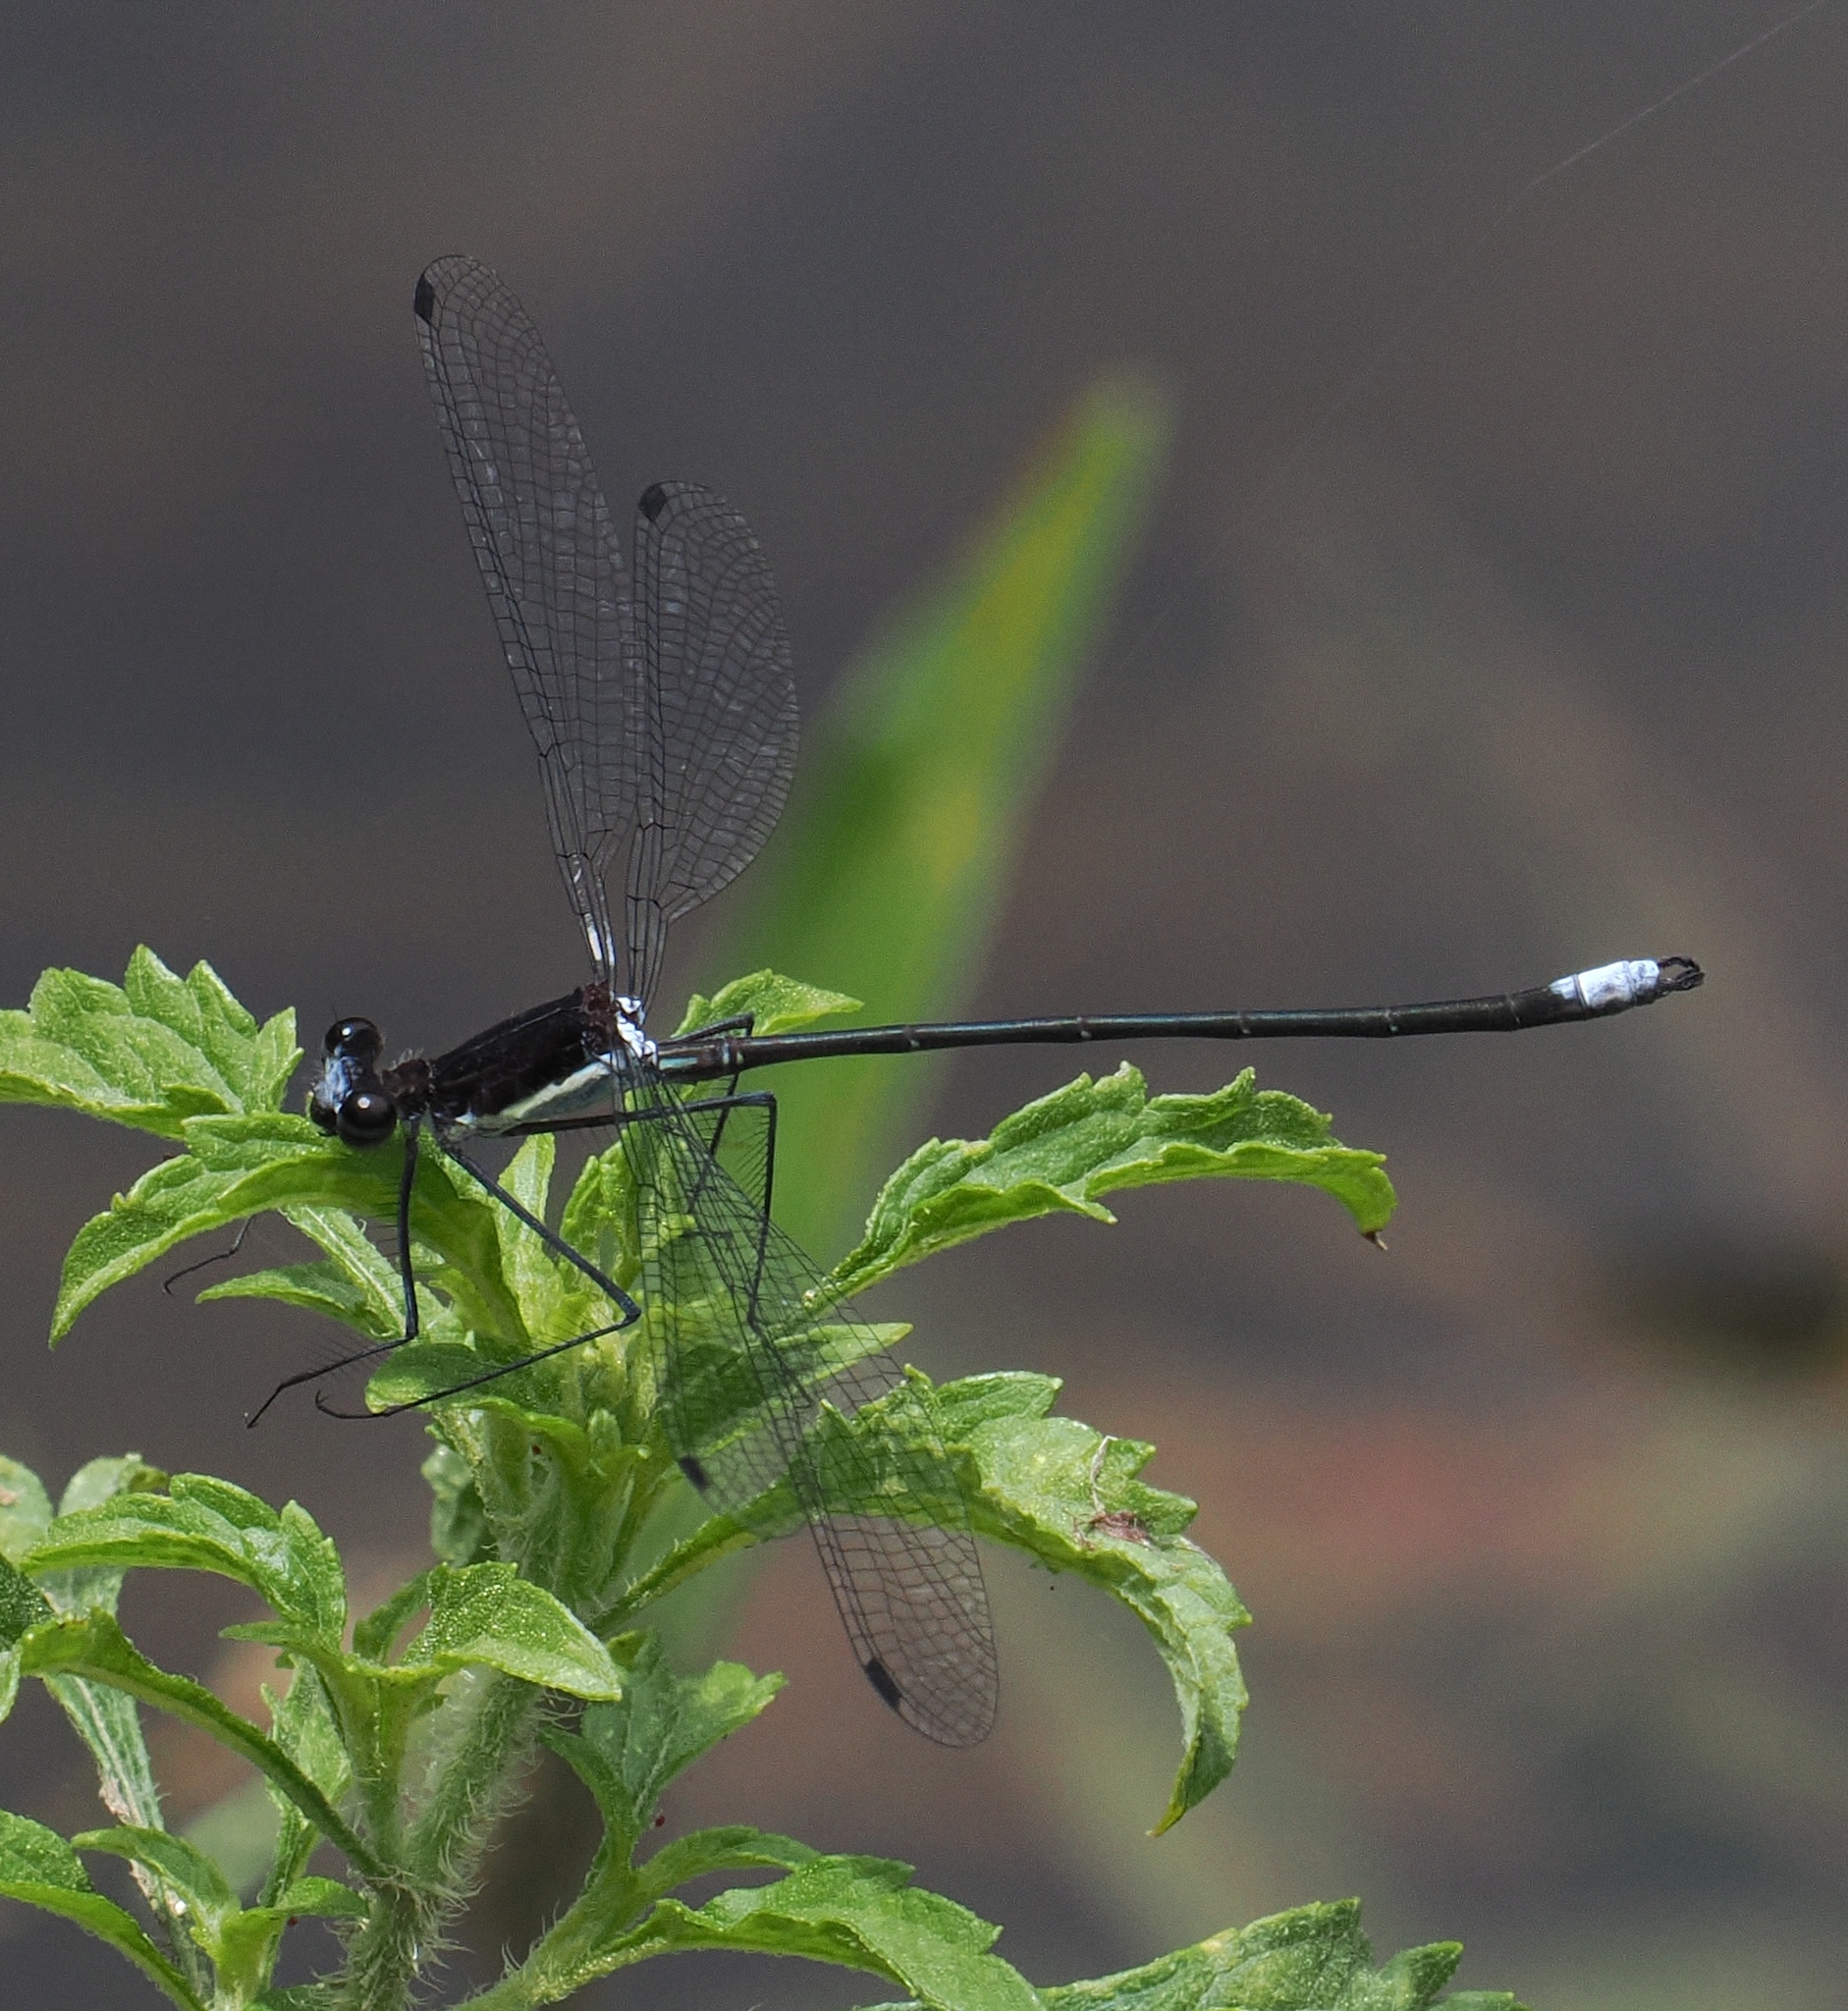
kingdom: Animalia
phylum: Arthropoda
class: Insecta
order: Odonata
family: Megapodagrionidae
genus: Allopodagrion
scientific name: Allopodagrion contortum
